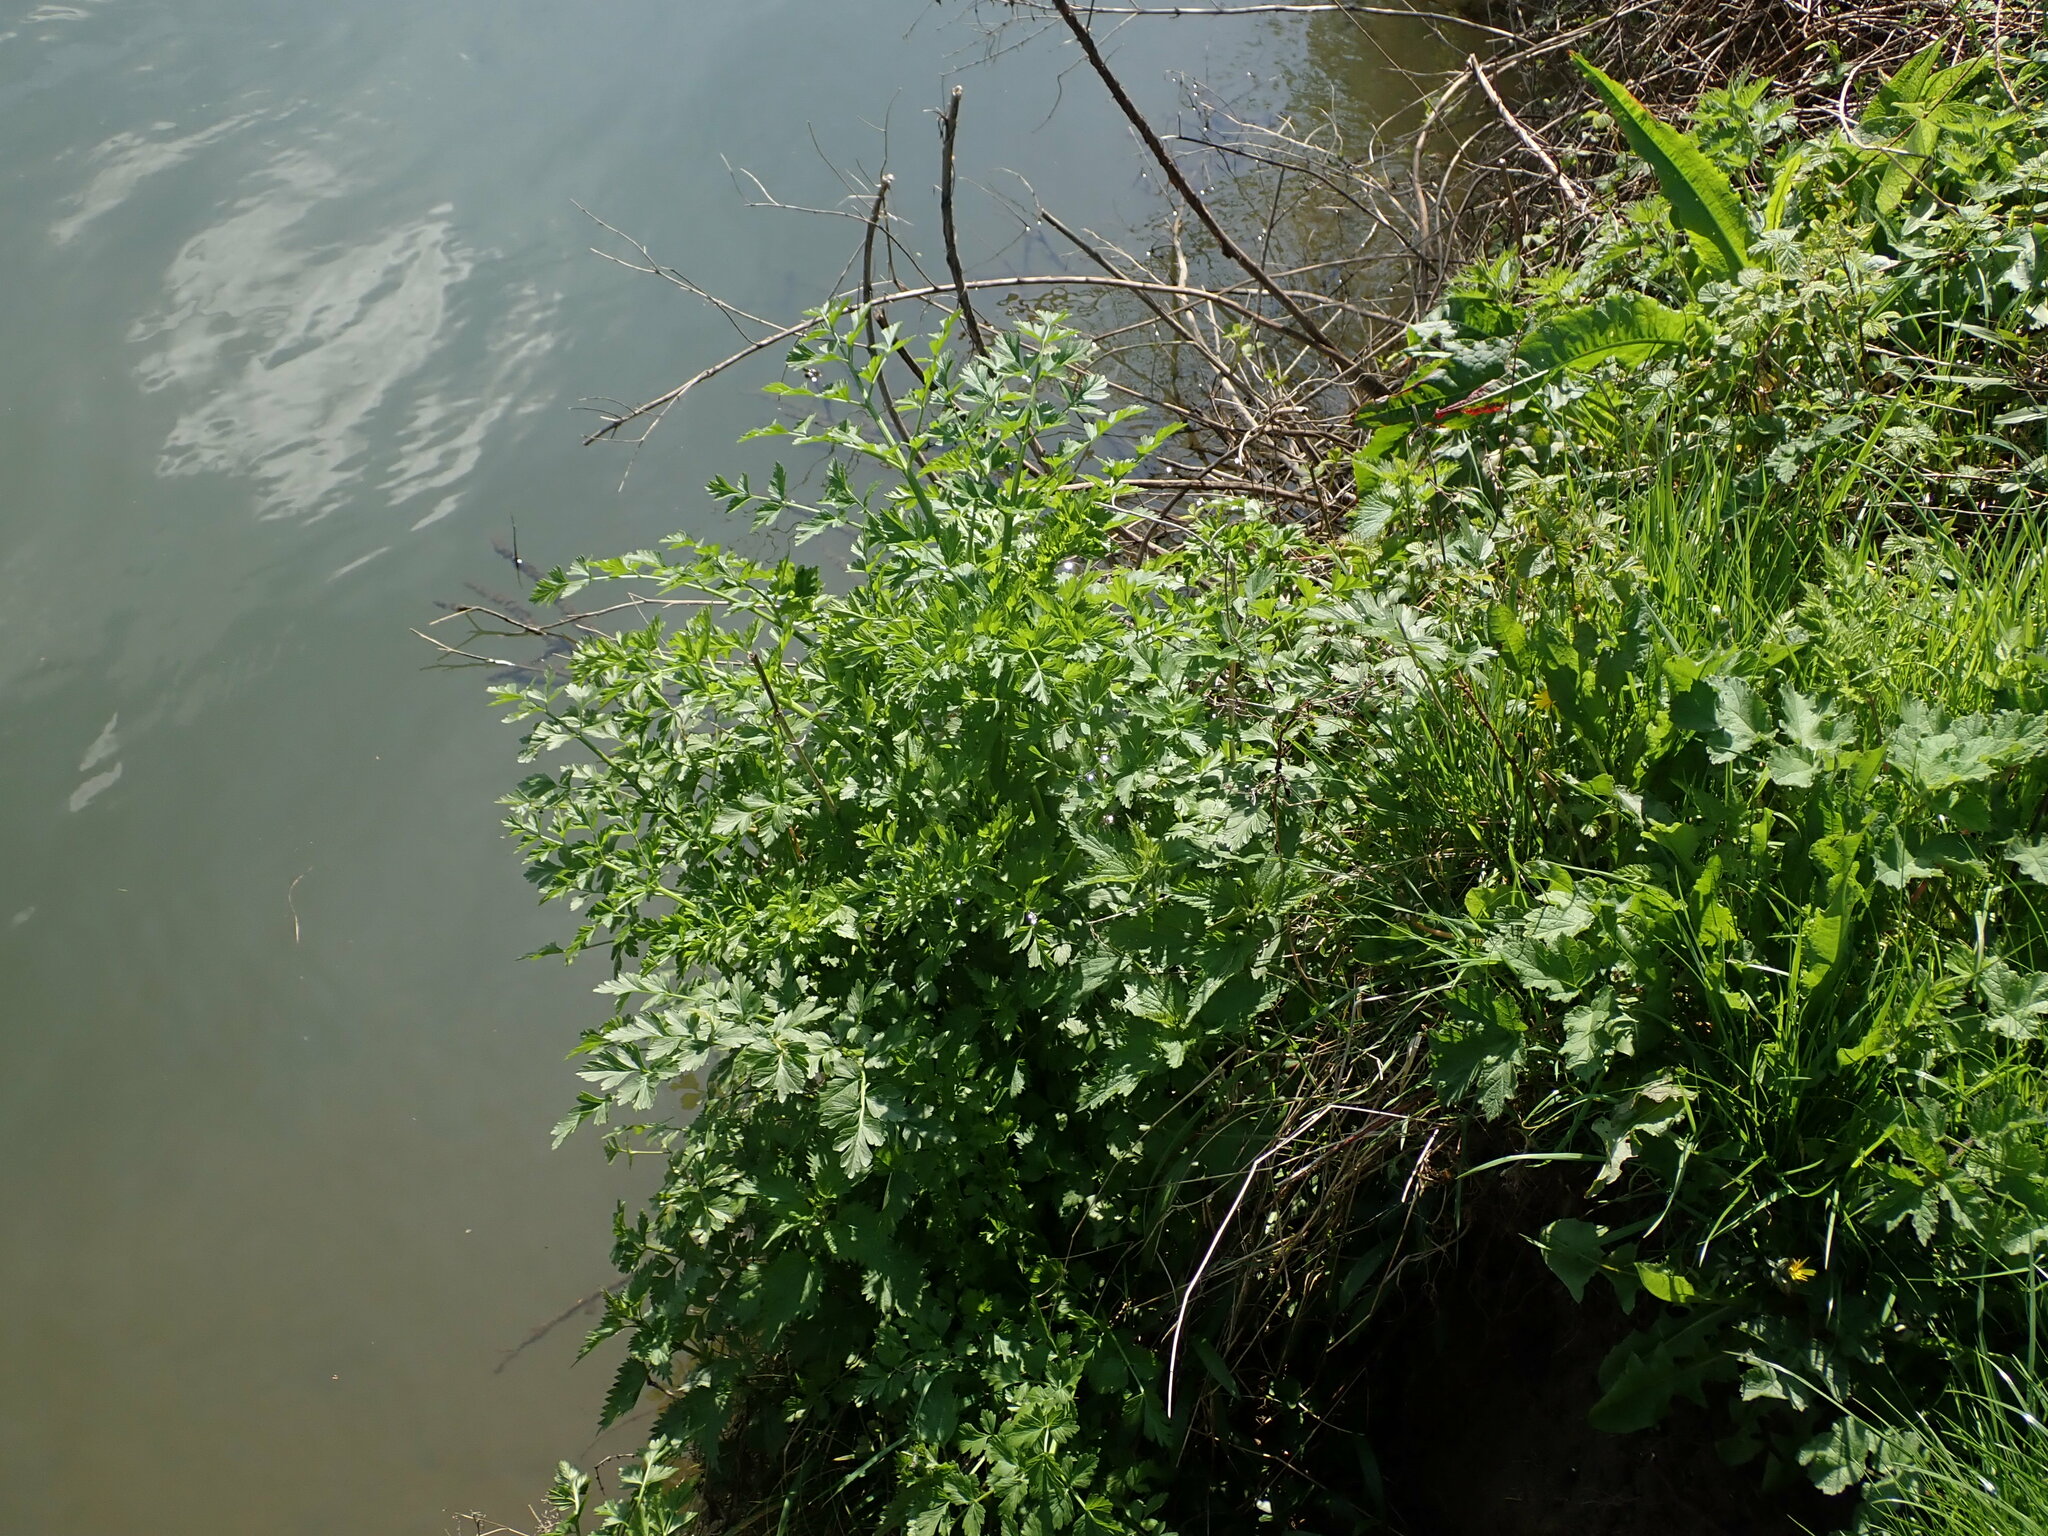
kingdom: Plantae
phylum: Tracheophyta
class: Magnoliopsida
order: Apiales
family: Apiaceae
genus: Oenanthe
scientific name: Oenanthe crocata
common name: Hemlock water-dropwort
